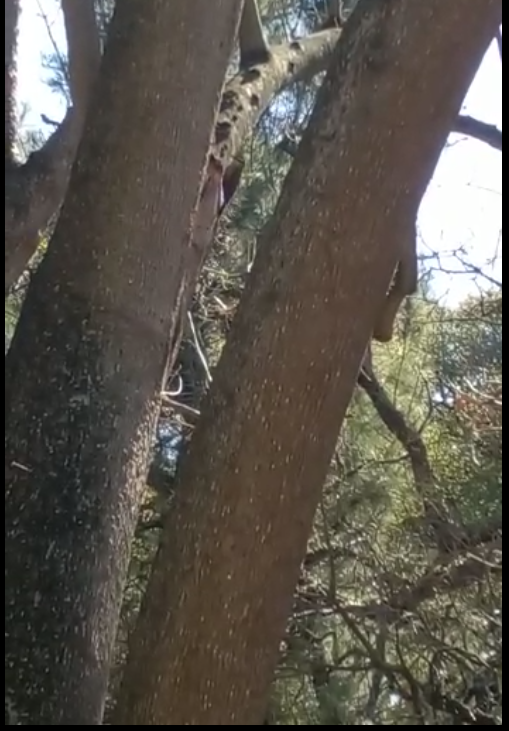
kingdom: Animalia
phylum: Chordata
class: Aves
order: Passeriformes
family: Furnariidae
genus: Lepidocolaptes
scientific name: Lepidocolaptes angustirostris
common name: Narrow-billed woodcreeper
